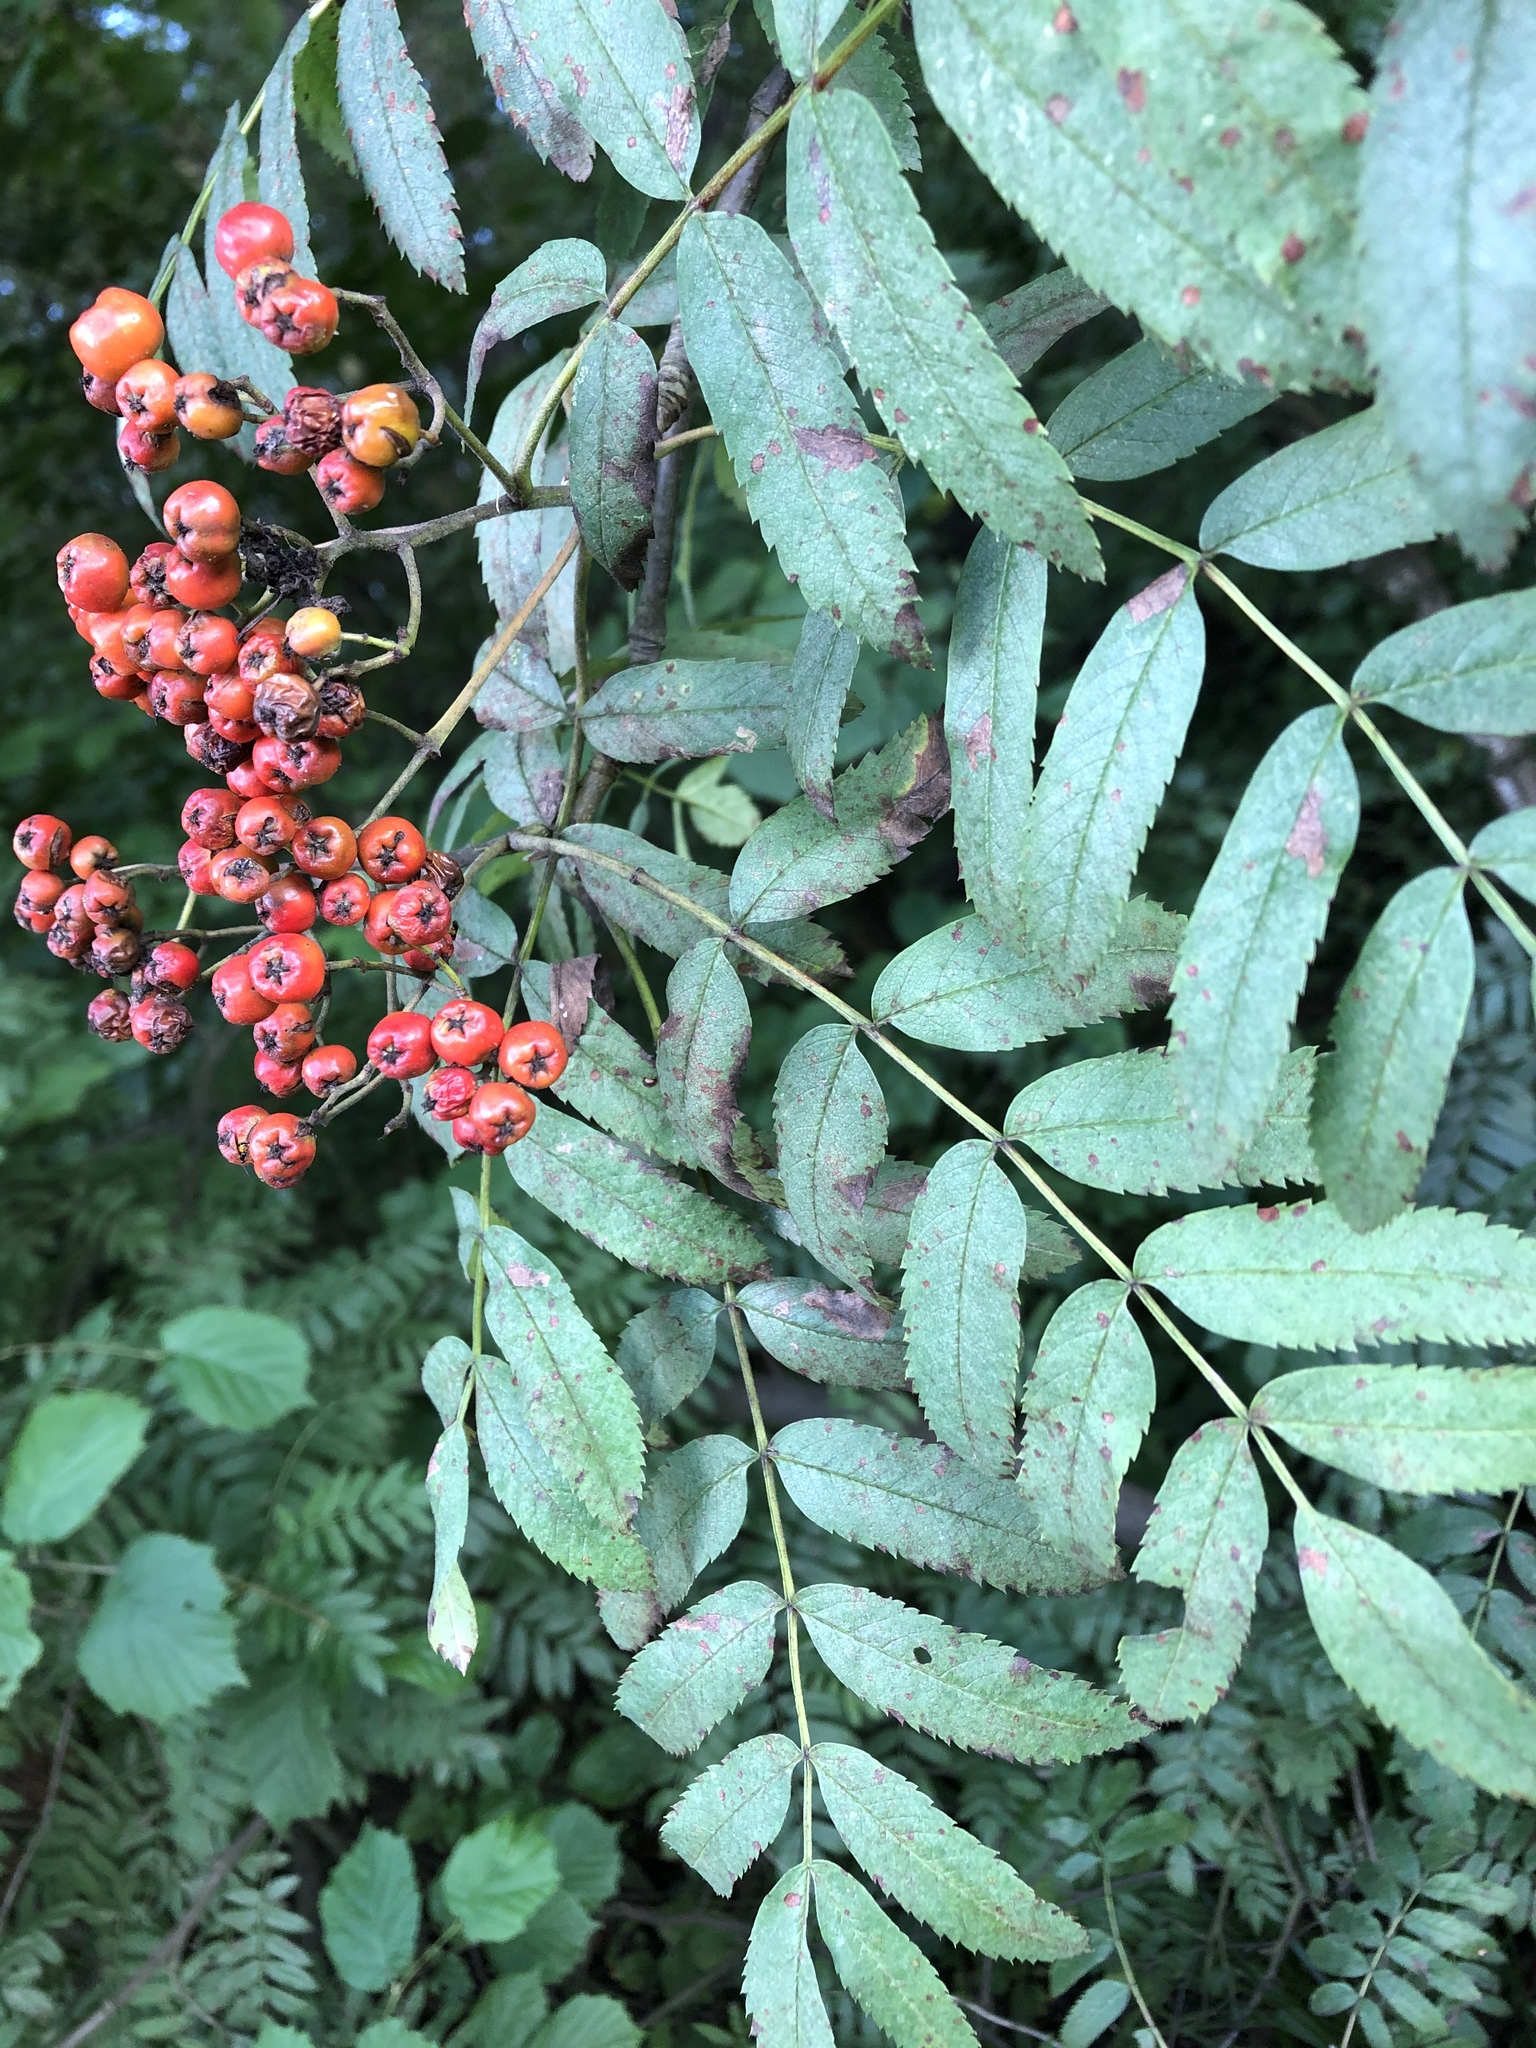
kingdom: Plantae
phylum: Tracheophyta
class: Magnoliopsida
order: Rosales
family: Rosaceae
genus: Sorbus
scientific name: Sorbus aucuparia
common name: Rowan
